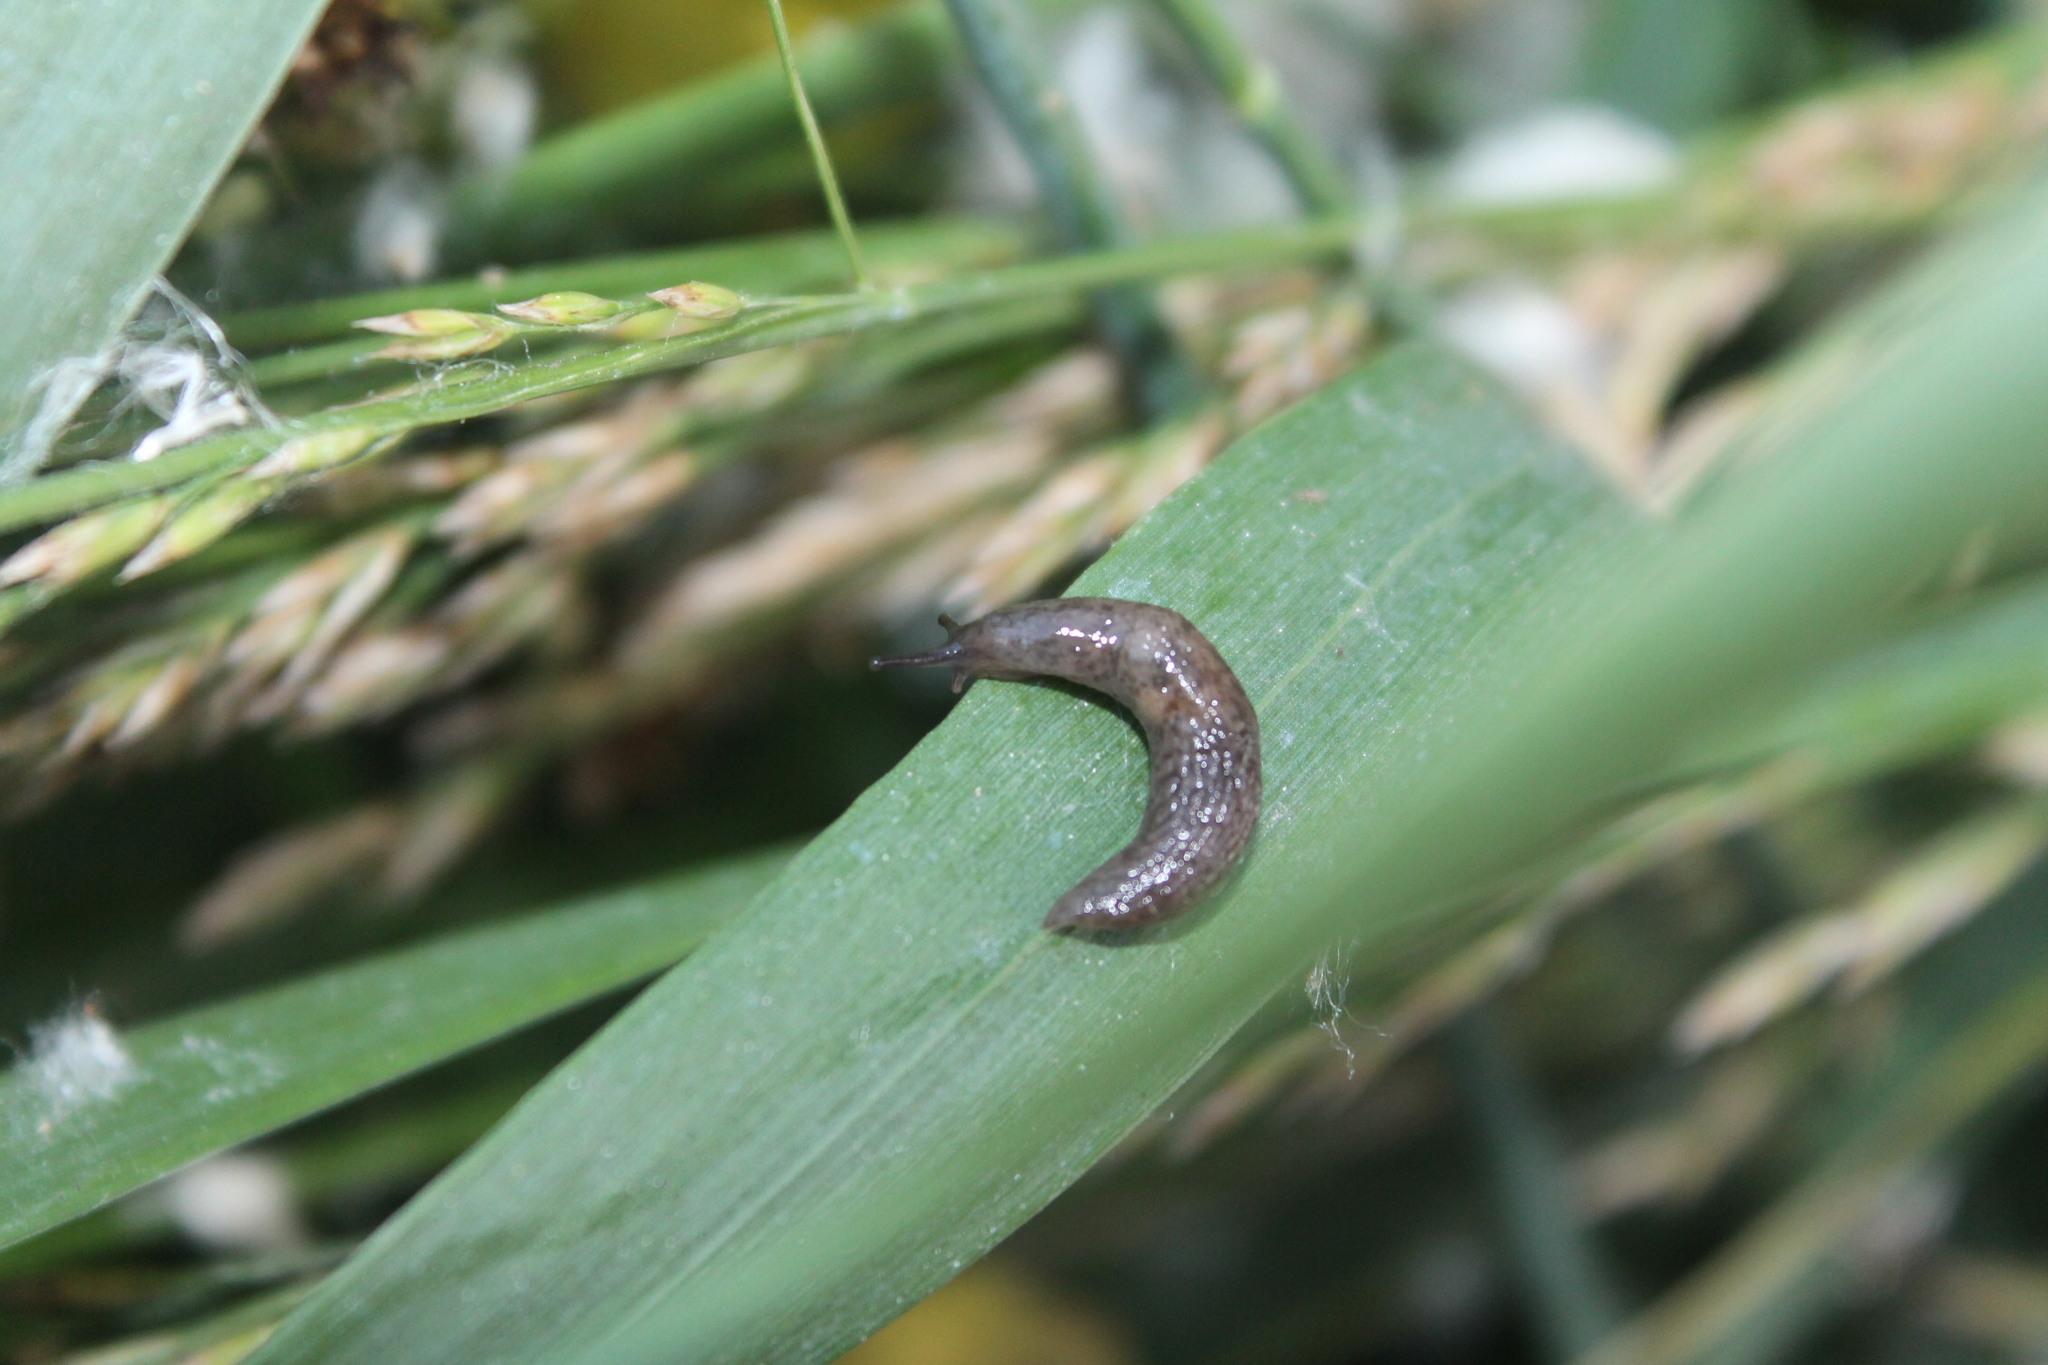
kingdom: Animalia
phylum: Mollusca
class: Gastropoda
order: Stylommatophora
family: Agriolimacidae
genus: Deroceras
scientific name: Deroceras laeve
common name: Marsh slug
